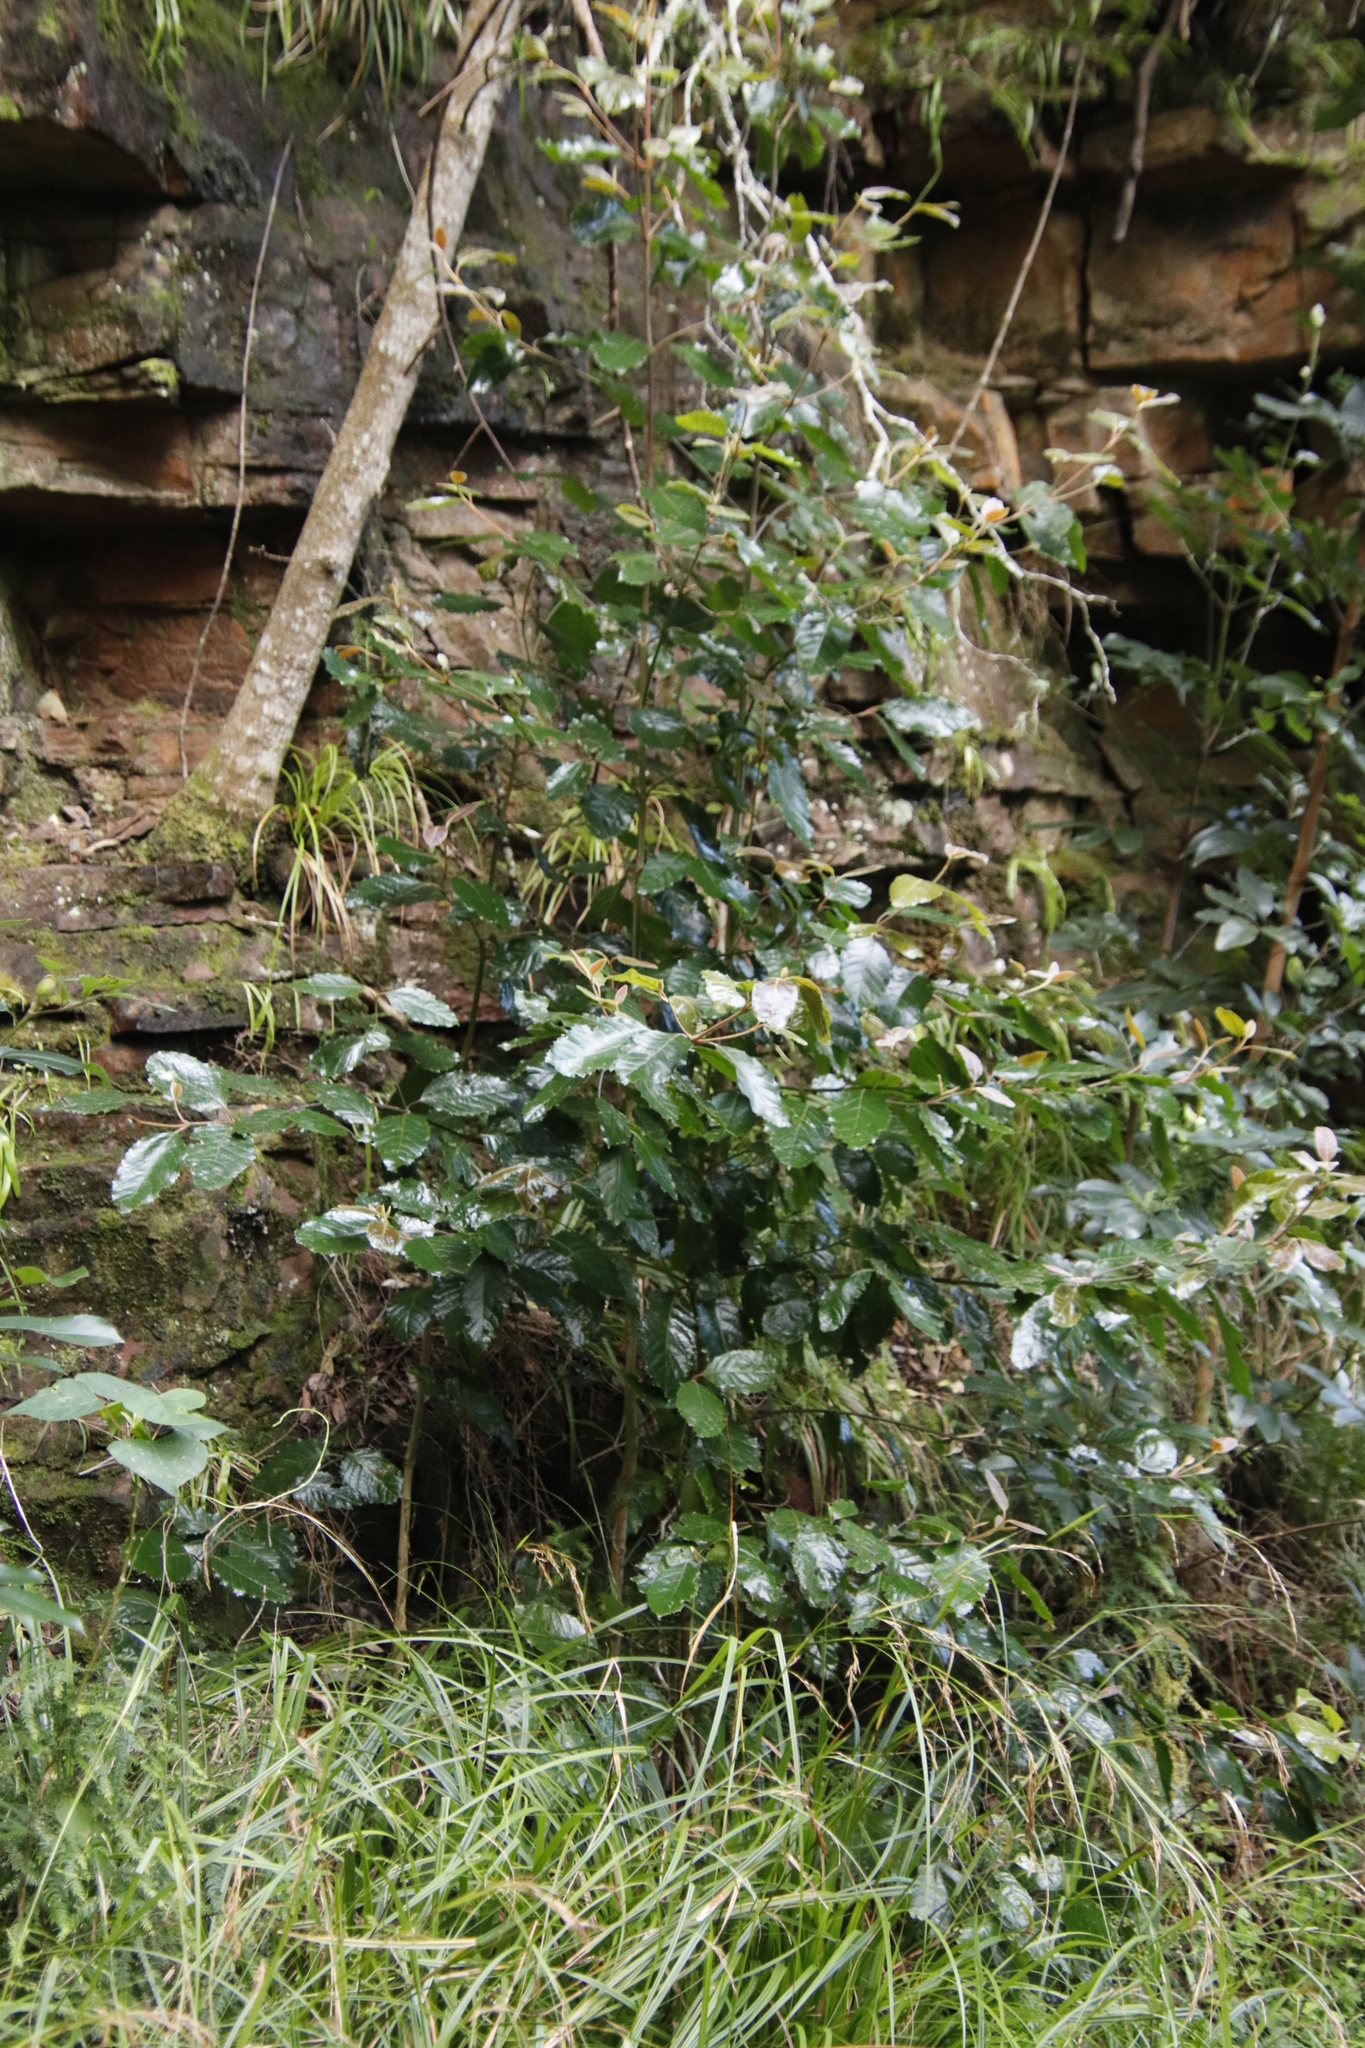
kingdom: Plantae
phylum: Tracheophyta
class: Magnoliopsida
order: Cornales
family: Curtisiaceae
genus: Curtisia
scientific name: Curtisia dentata
